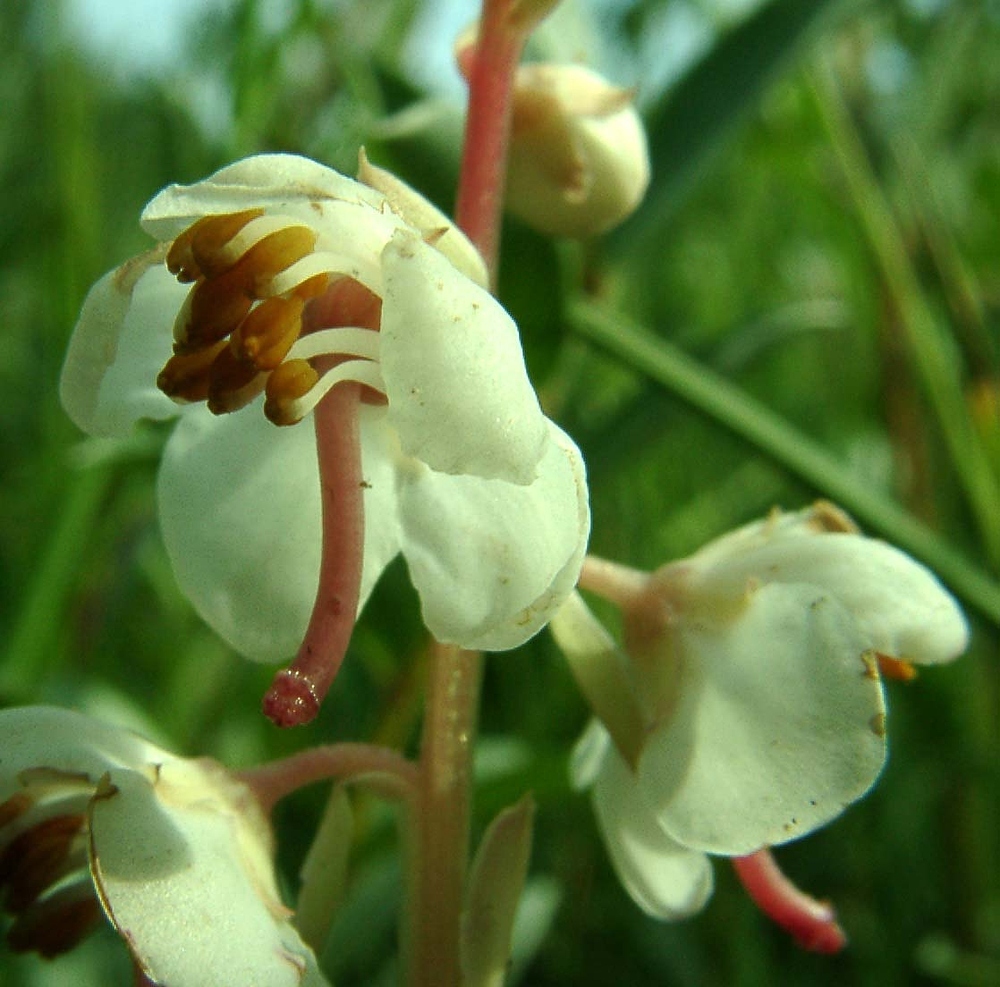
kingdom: Plantae
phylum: Tracheophyta
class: Magnoliopsida
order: Ericales
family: Ericaceae
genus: Pyrola
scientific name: Pyrola rotundifolia
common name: Round-leaved wintergreen
